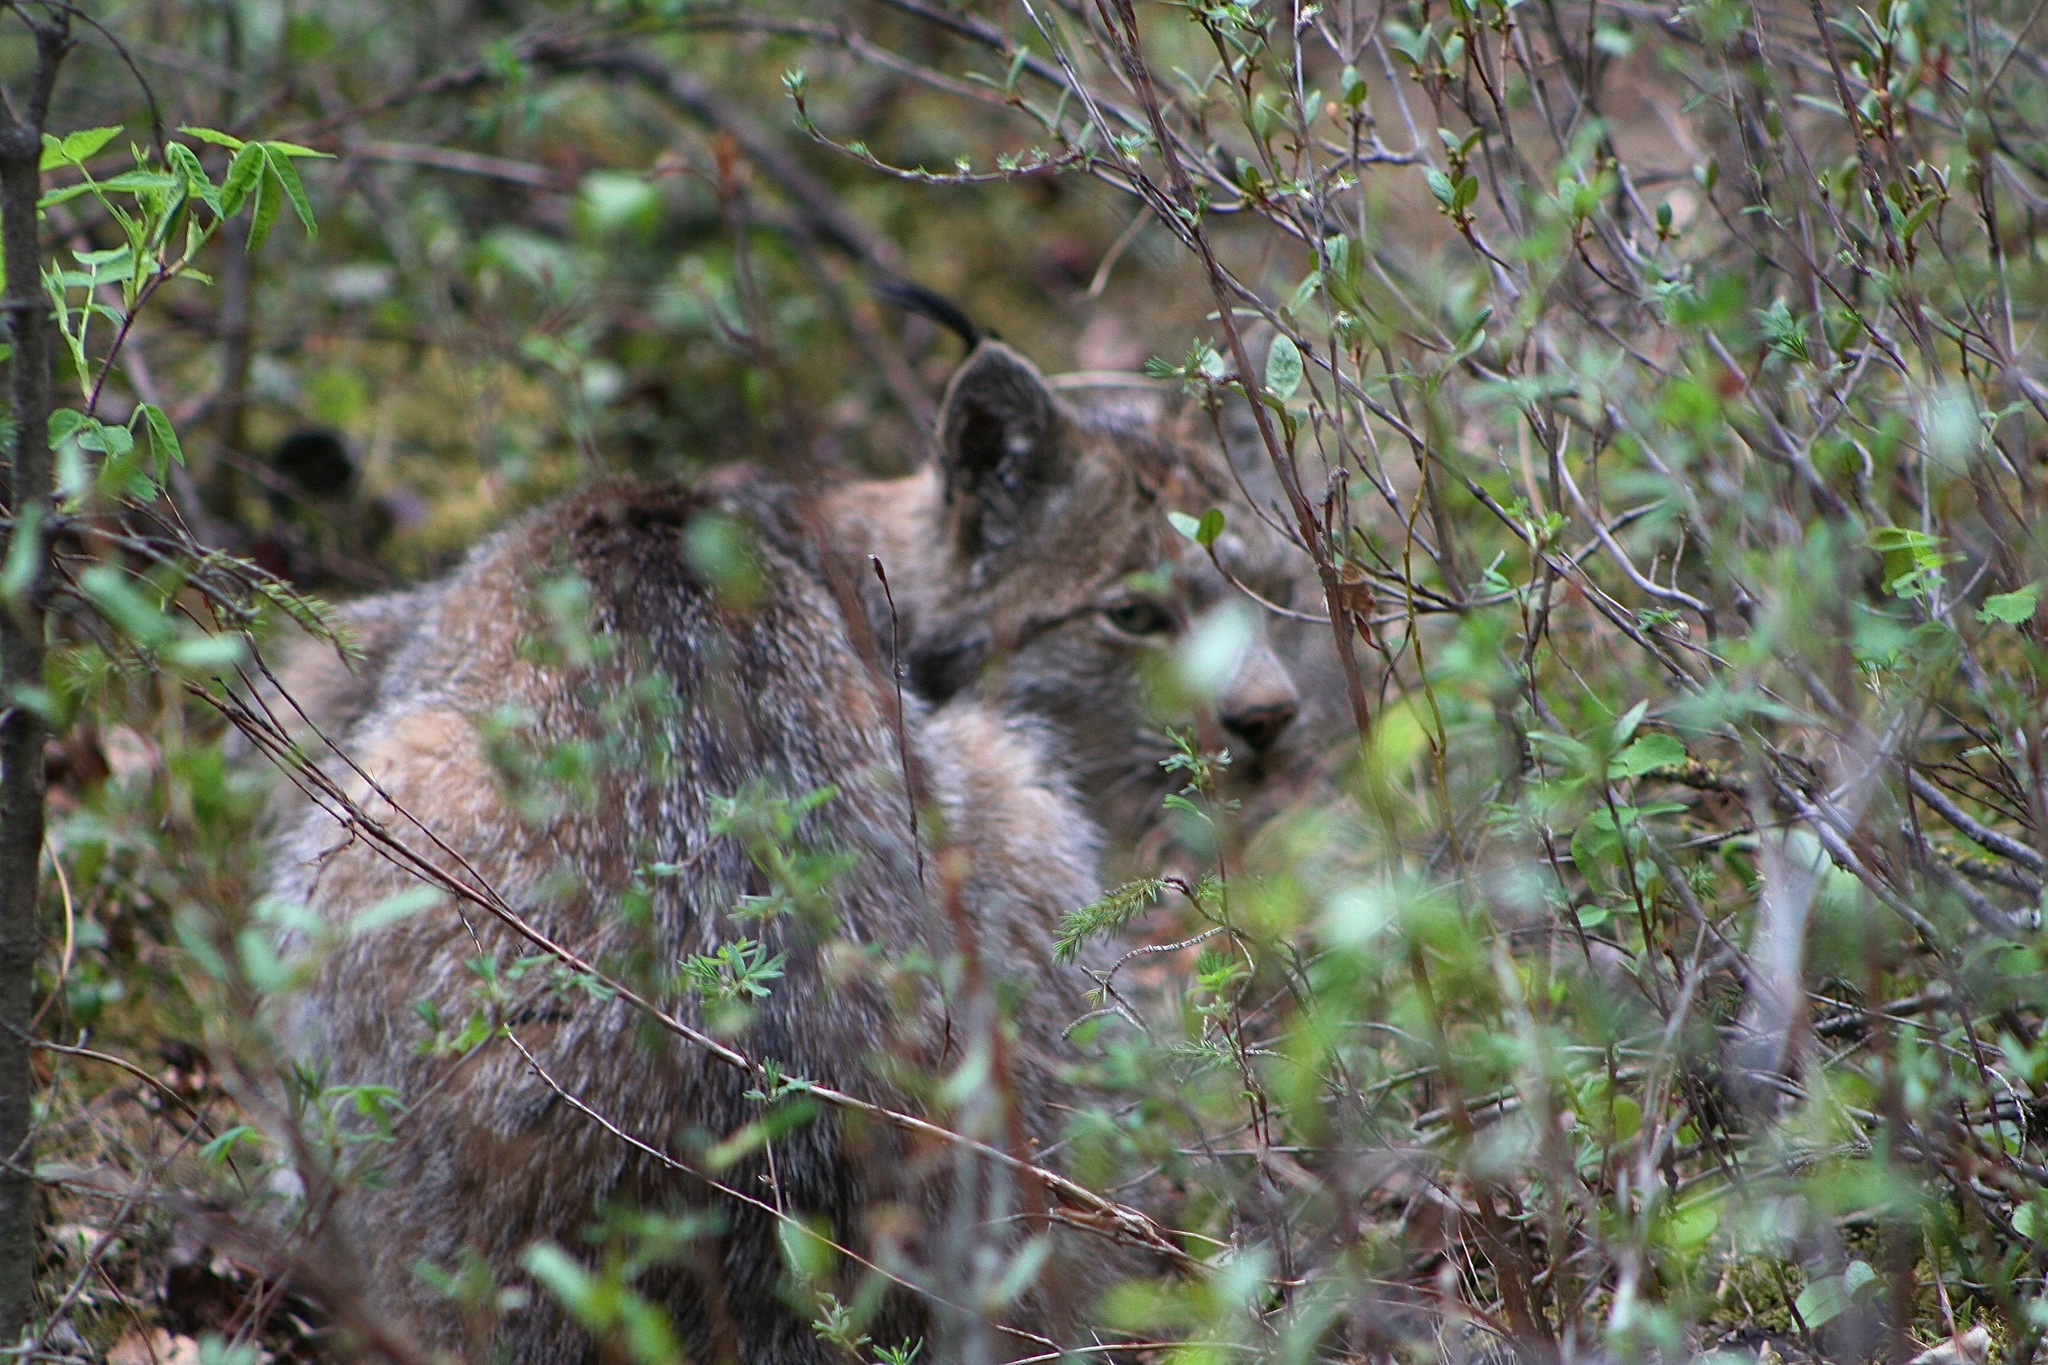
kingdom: Animalia
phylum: Chordata
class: Mammalia
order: Carnivora
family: Felidae
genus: Lynx
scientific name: Lynx canadensis
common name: Canadian lynx
